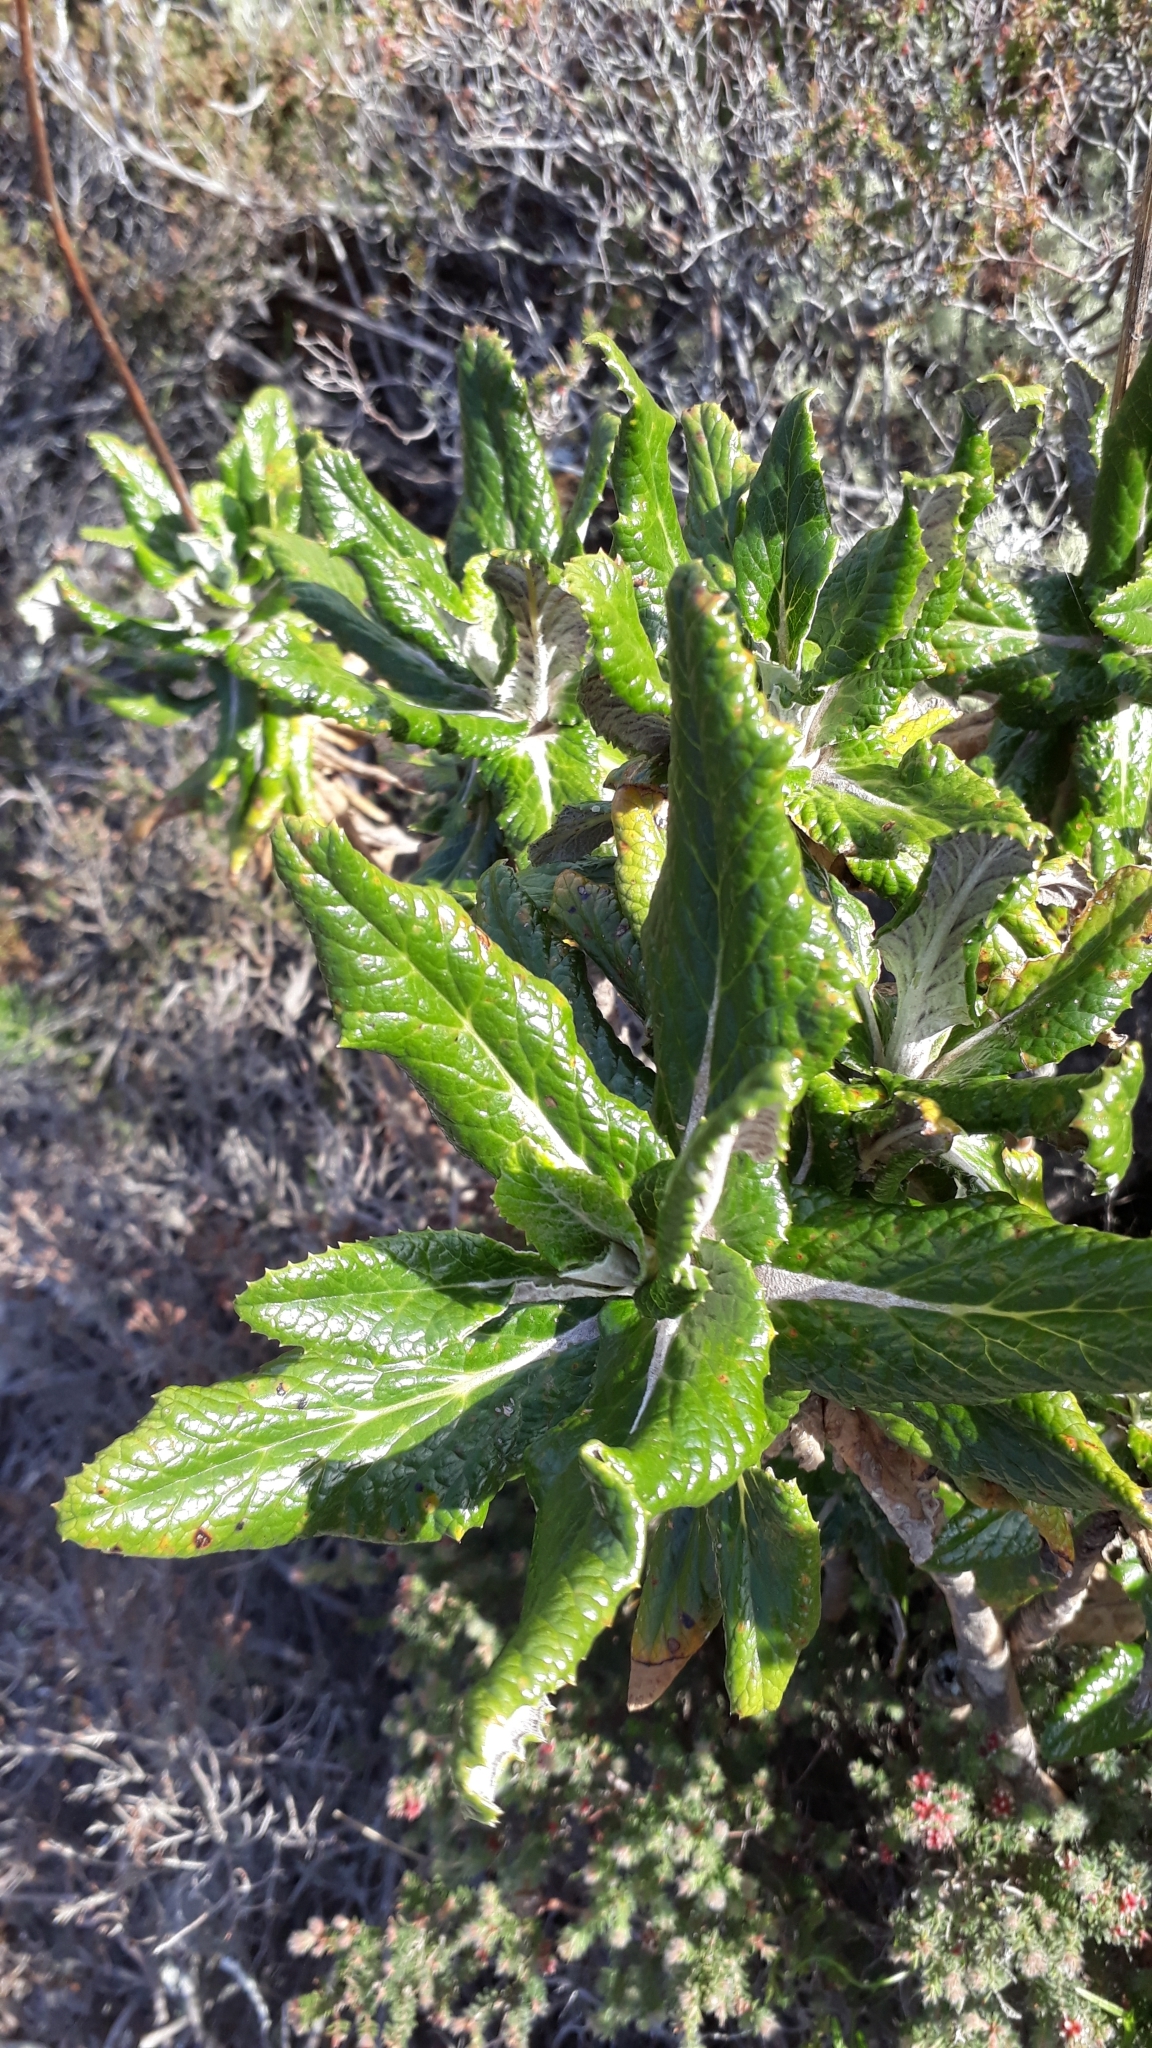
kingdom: Plantae
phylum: Tracheophyta
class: Magnoliopsida
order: Apiales
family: Apiaceae
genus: Hermas
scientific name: Hermas villosa
